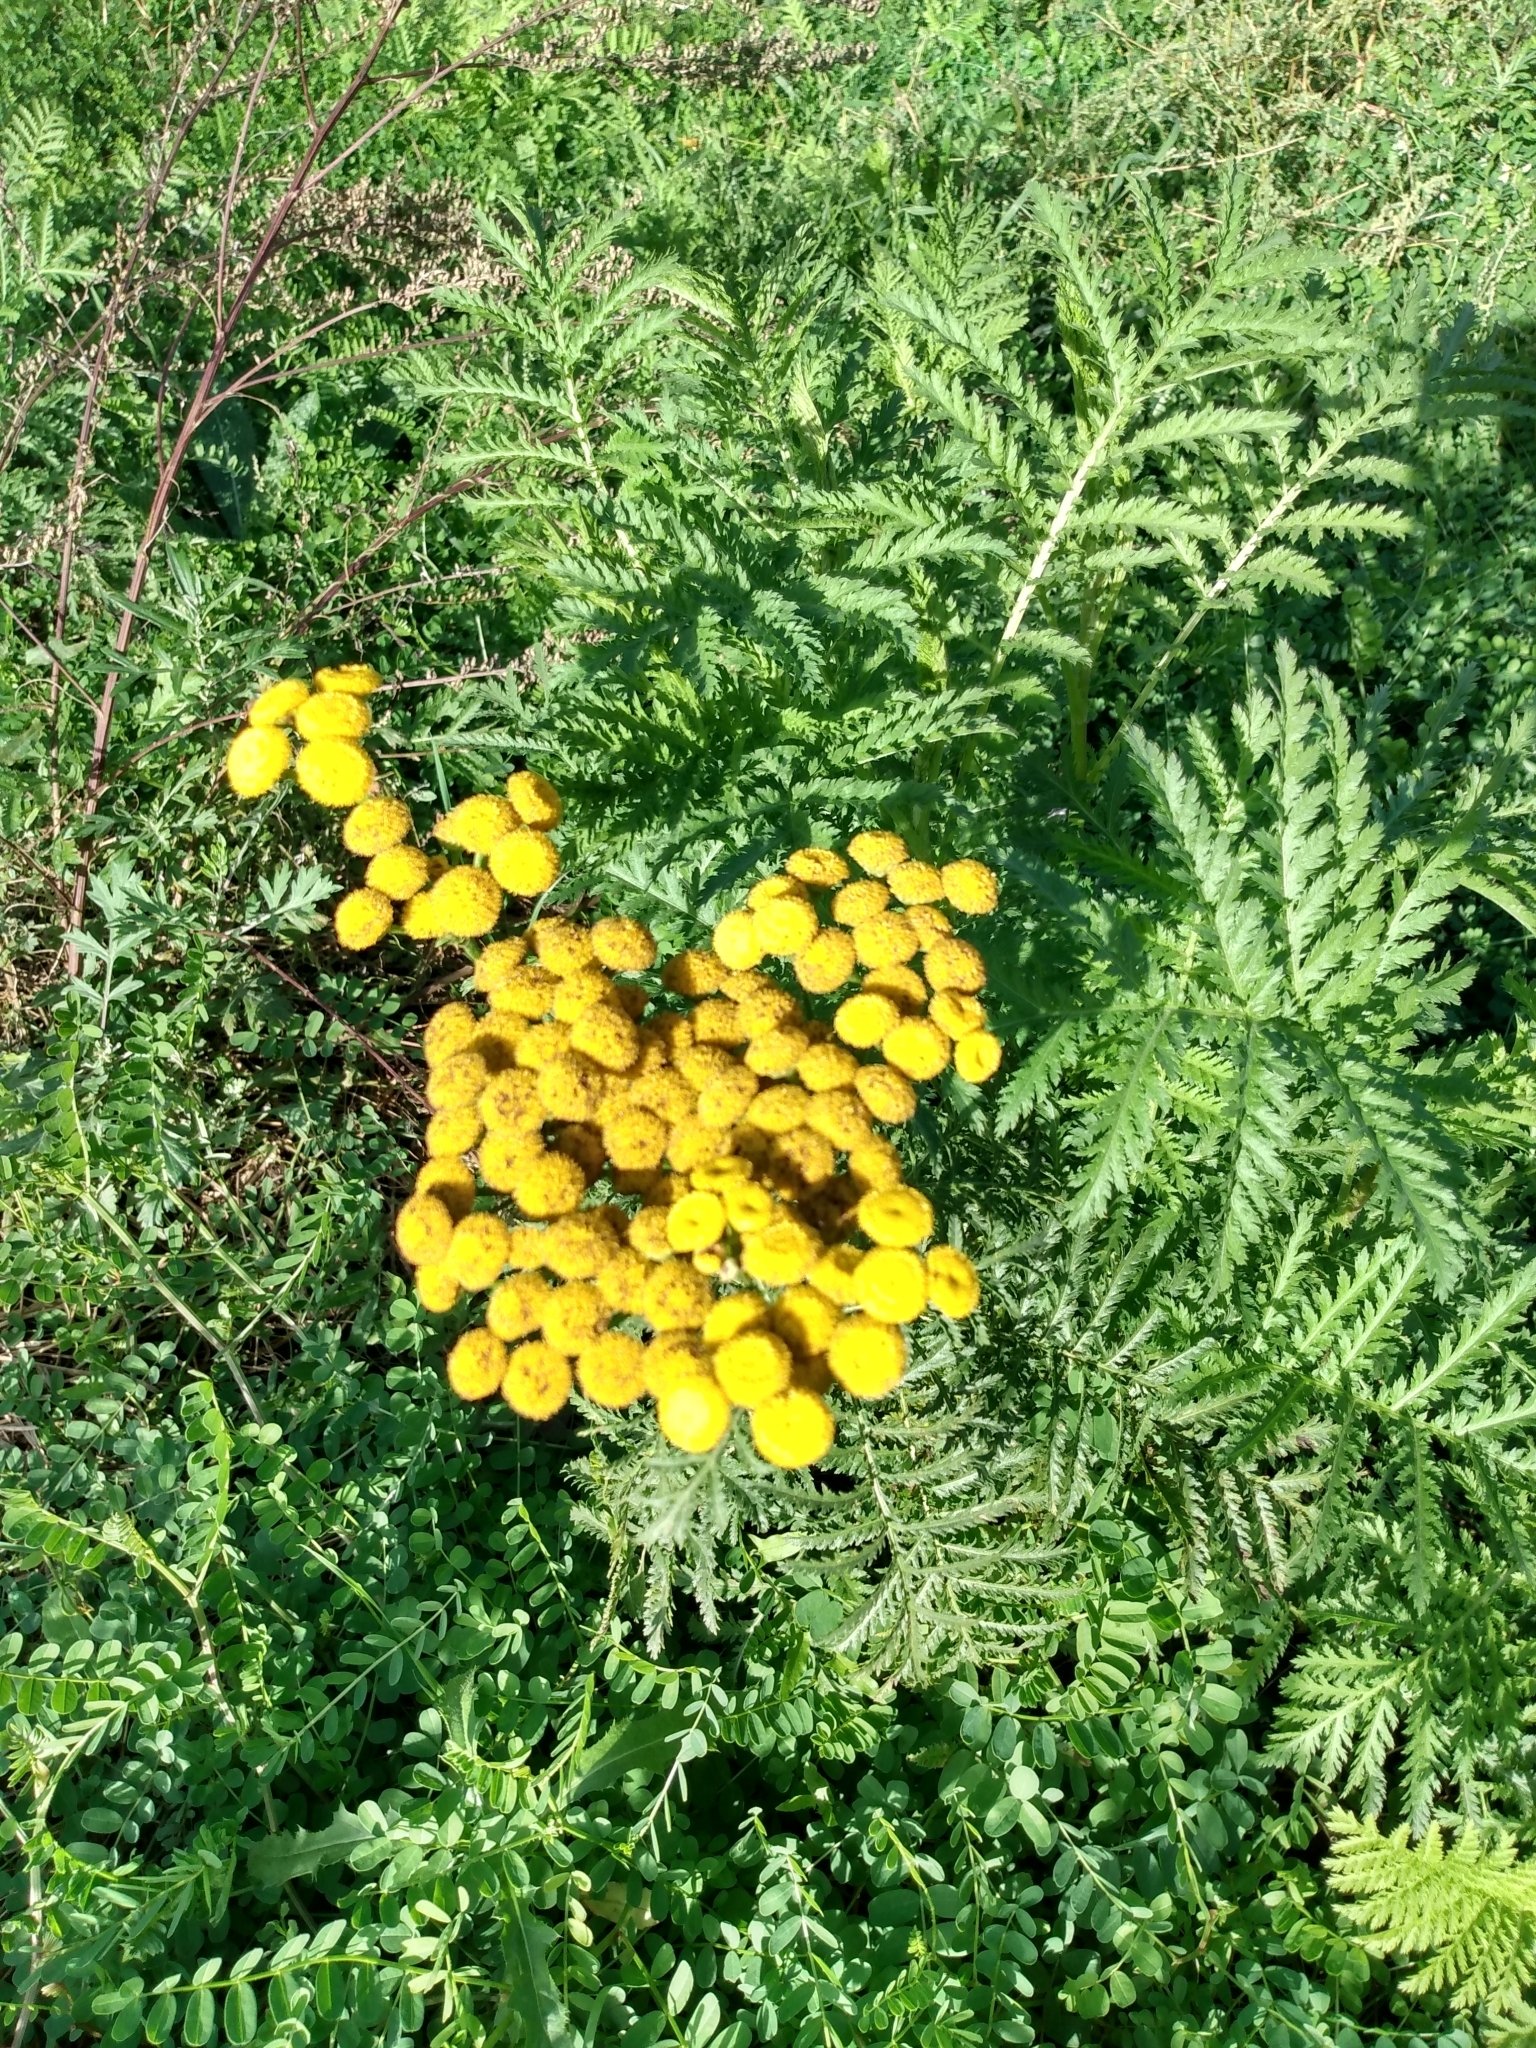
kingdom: Plantae
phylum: Tracheophyta
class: Magnoliopsida
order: Asterales
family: Asteraceae
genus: Tanacetum
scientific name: Tanacetum vulgare
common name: Common tansy
